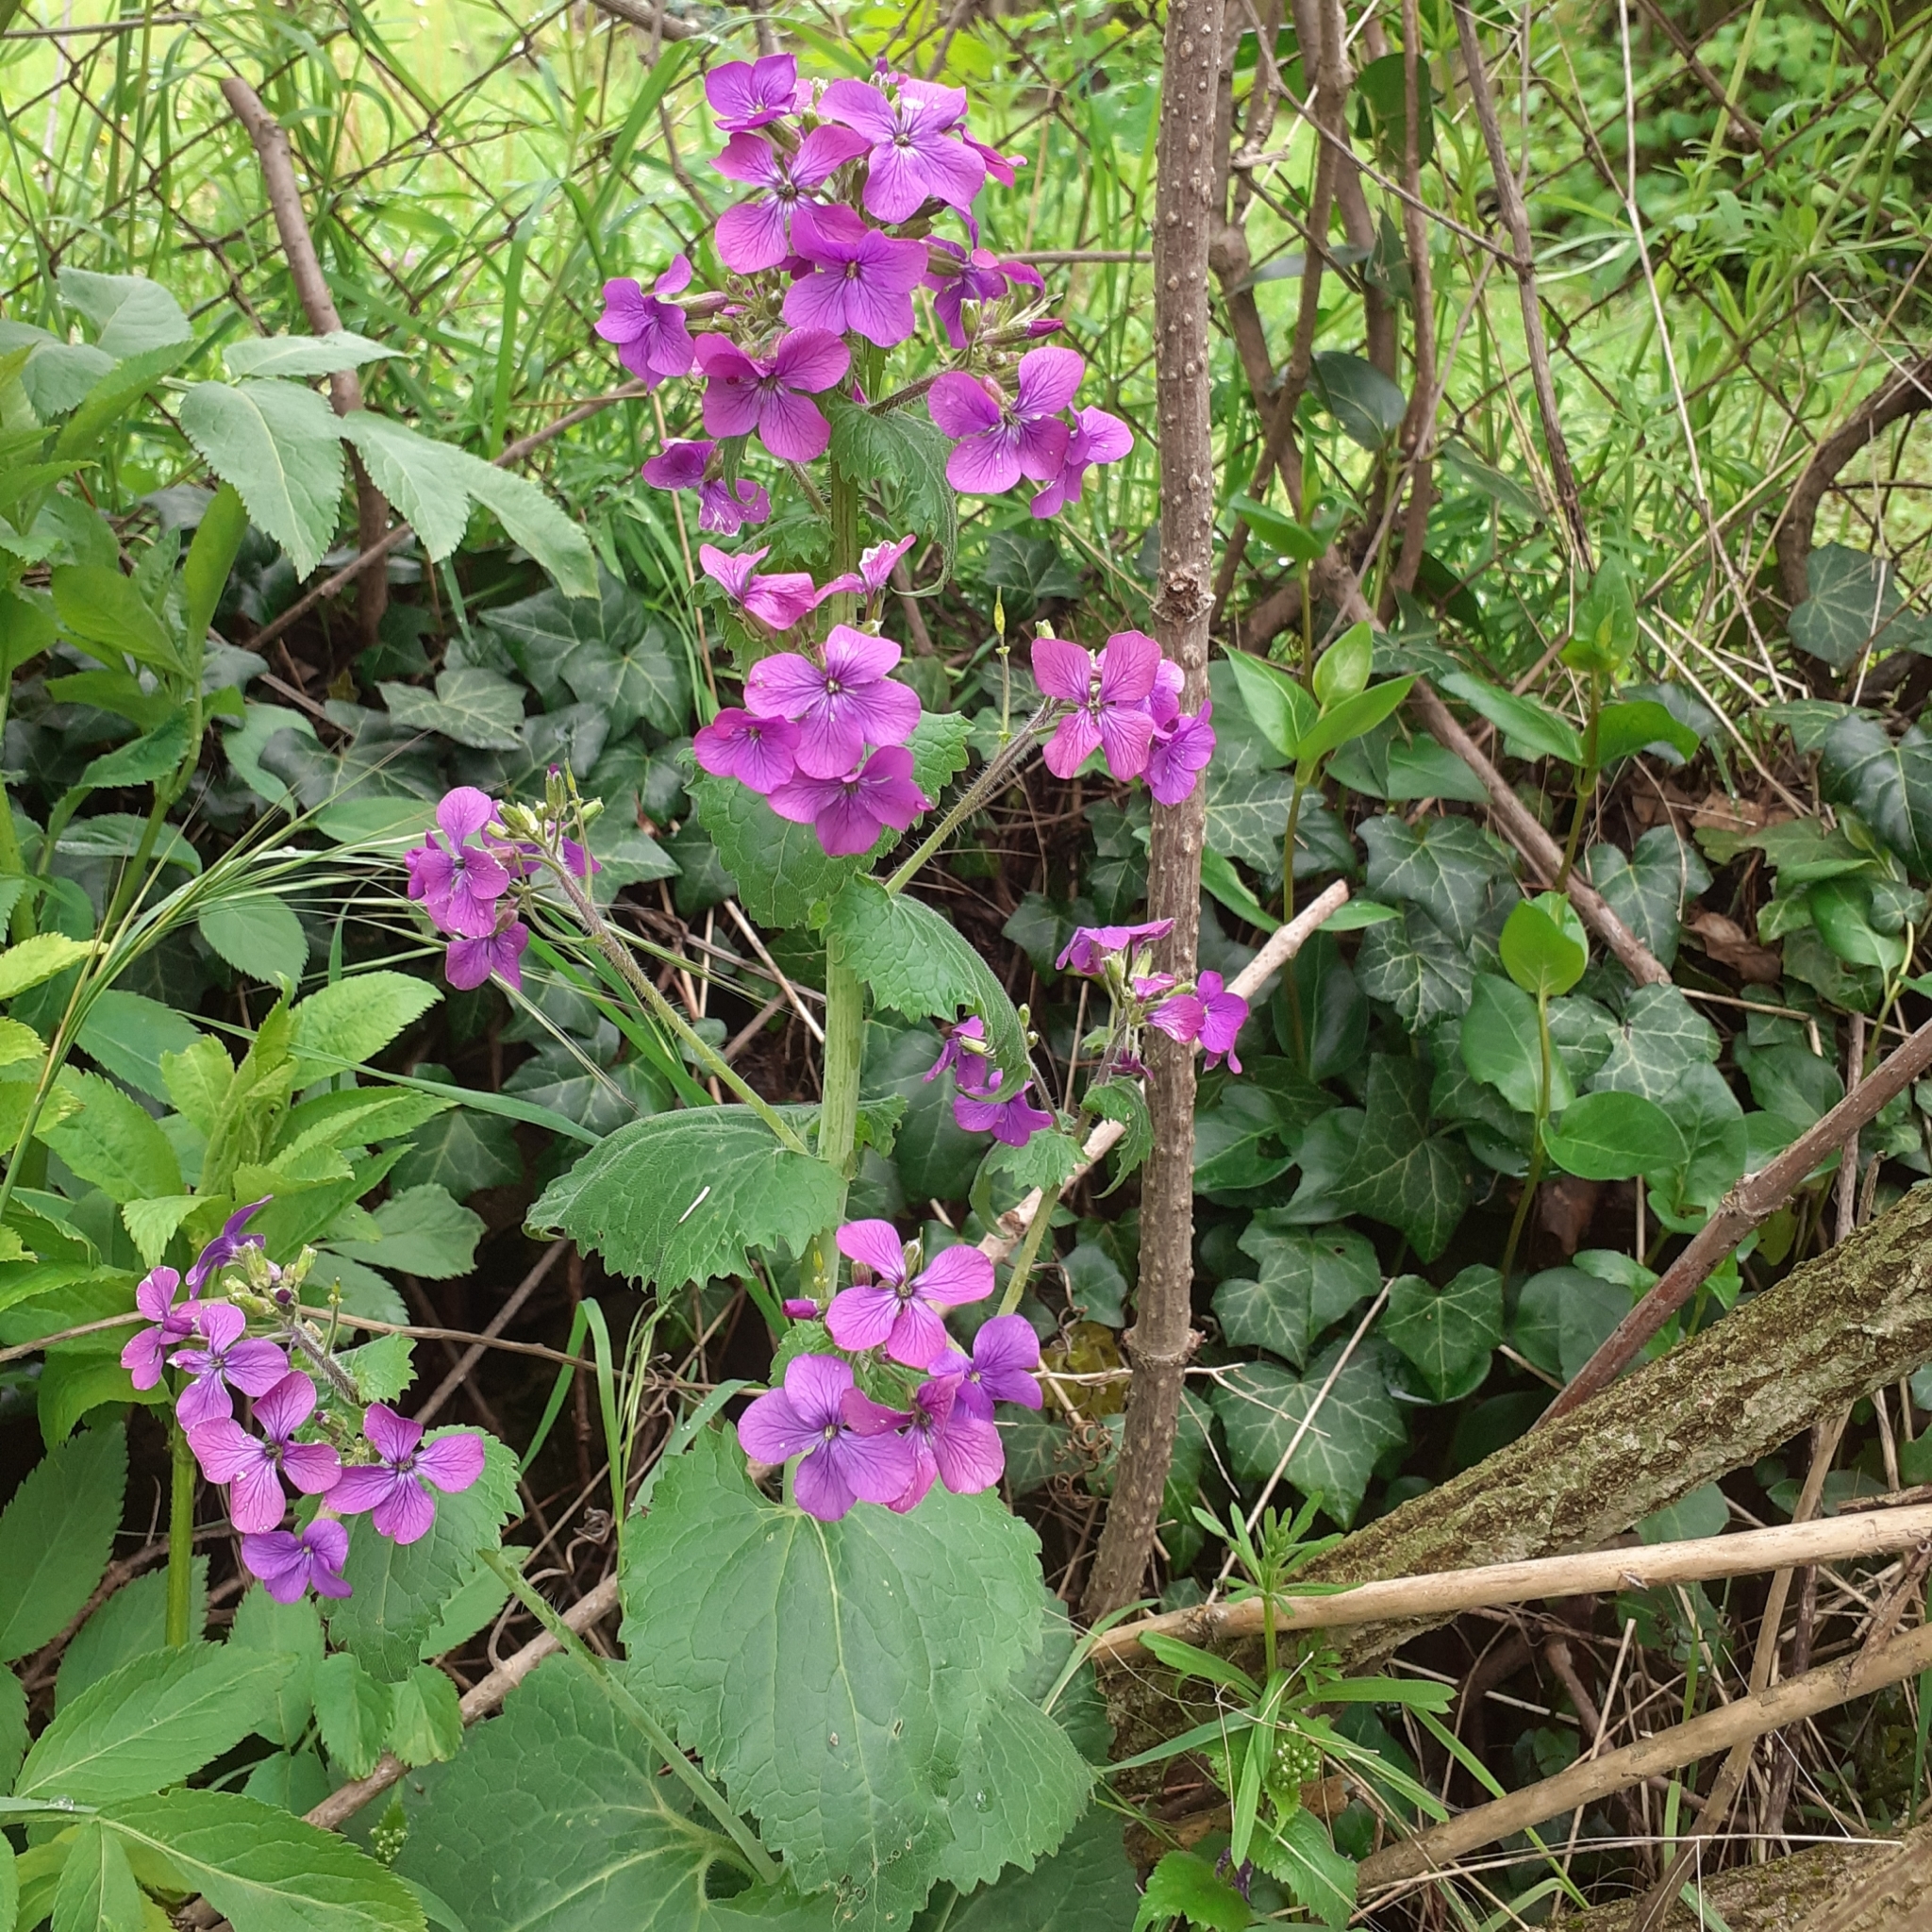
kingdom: Plantae
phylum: Tracheophyta
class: Magnoliopsida
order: Brassicales
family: Brassicaceae
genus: Lunaria
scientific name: Lunaria annua
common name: Honesty
